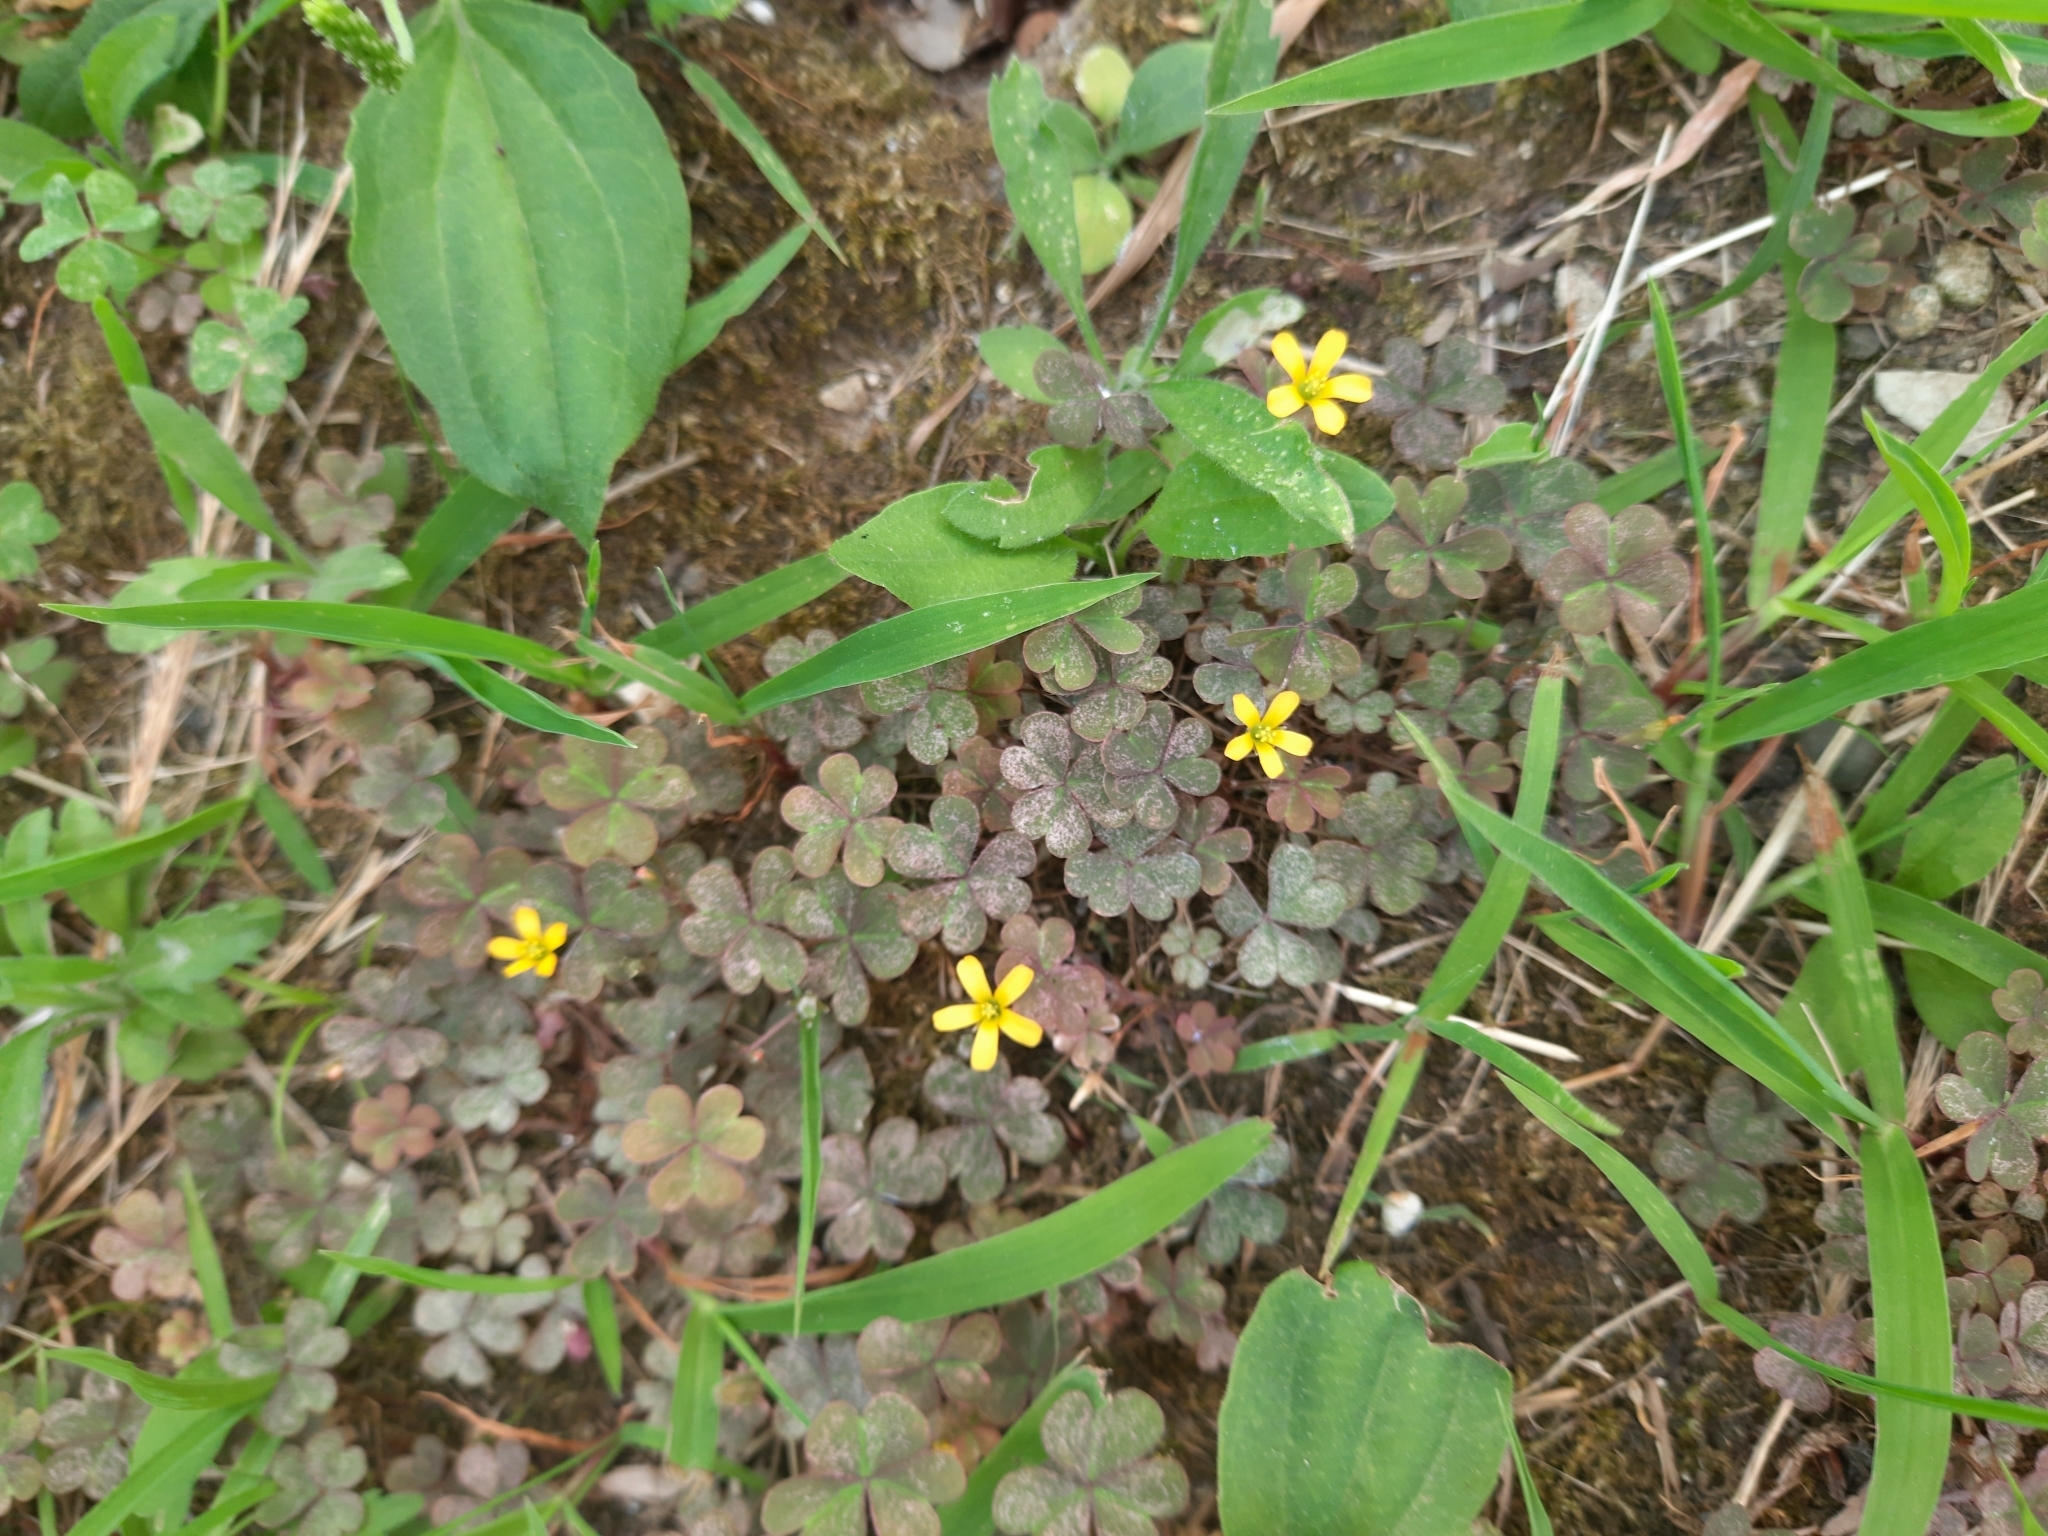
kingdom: Plantae
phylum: Tracheophyta
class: Magnoliopsida
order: Oxalidales
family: Oxalidaceae
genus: Oxalis
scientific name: Oxalis corniculata
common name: Procumbent yellow-sorrel
